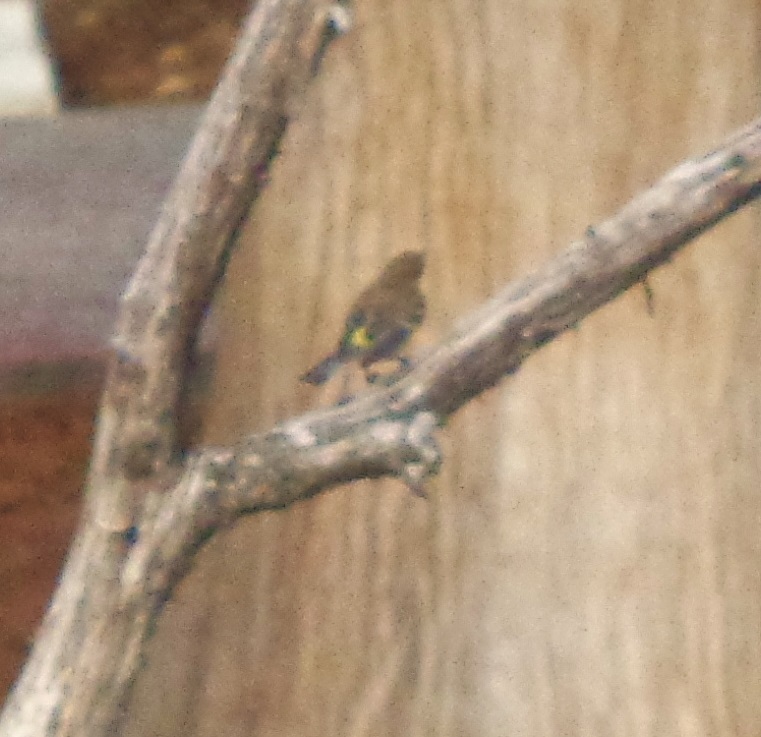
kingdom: Animalia
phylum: Chordata
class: Aves
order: Passeriformes
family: Parulidae
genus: Setophaga
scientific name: Setophaga coronata
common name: Myrtle warbler
